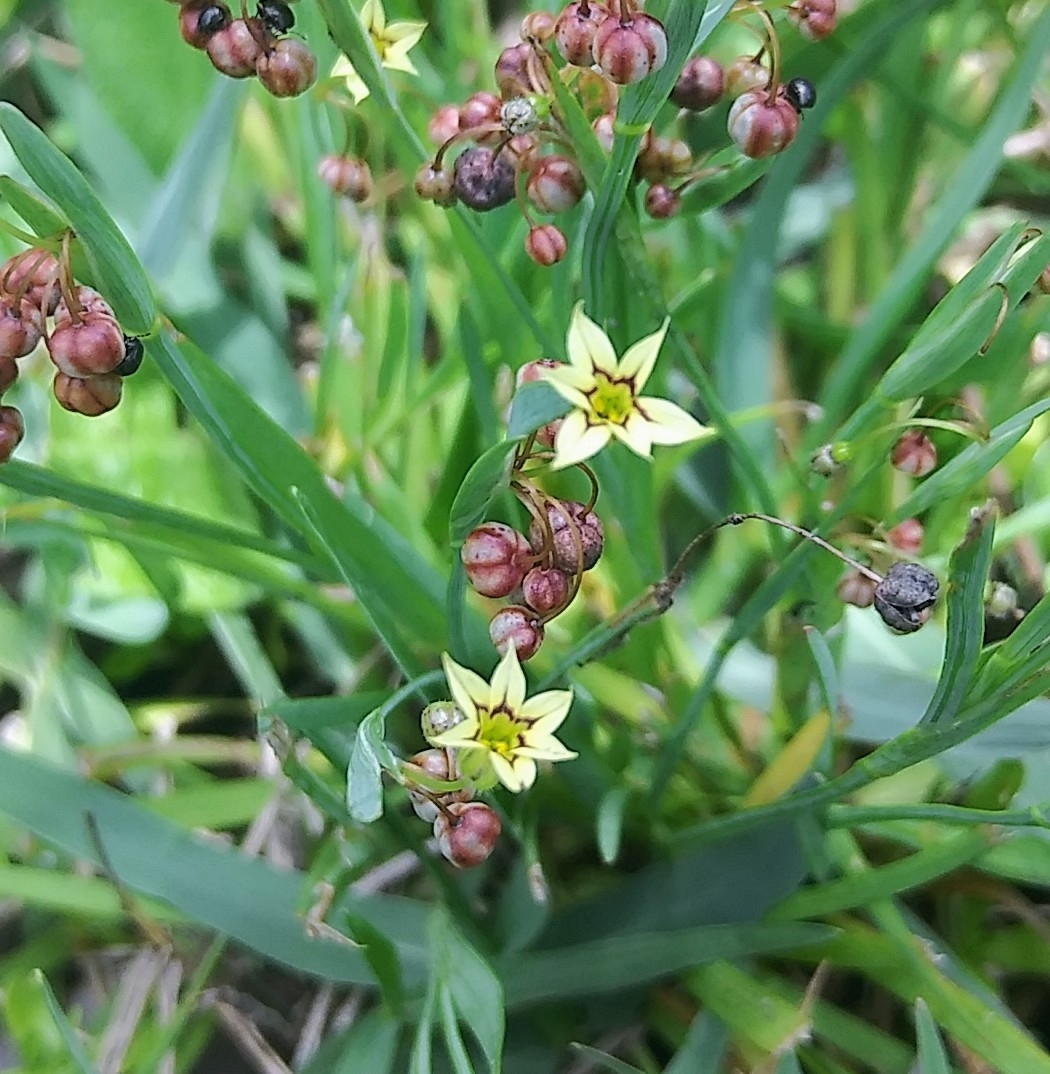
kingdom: Plantae
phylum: Tracheophyta
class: Liliopsida
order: Asparagales
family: Iridaceae
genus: Sisyrinchium
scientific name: Sisyrinchium micranthum
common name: Bermuda pigroot
